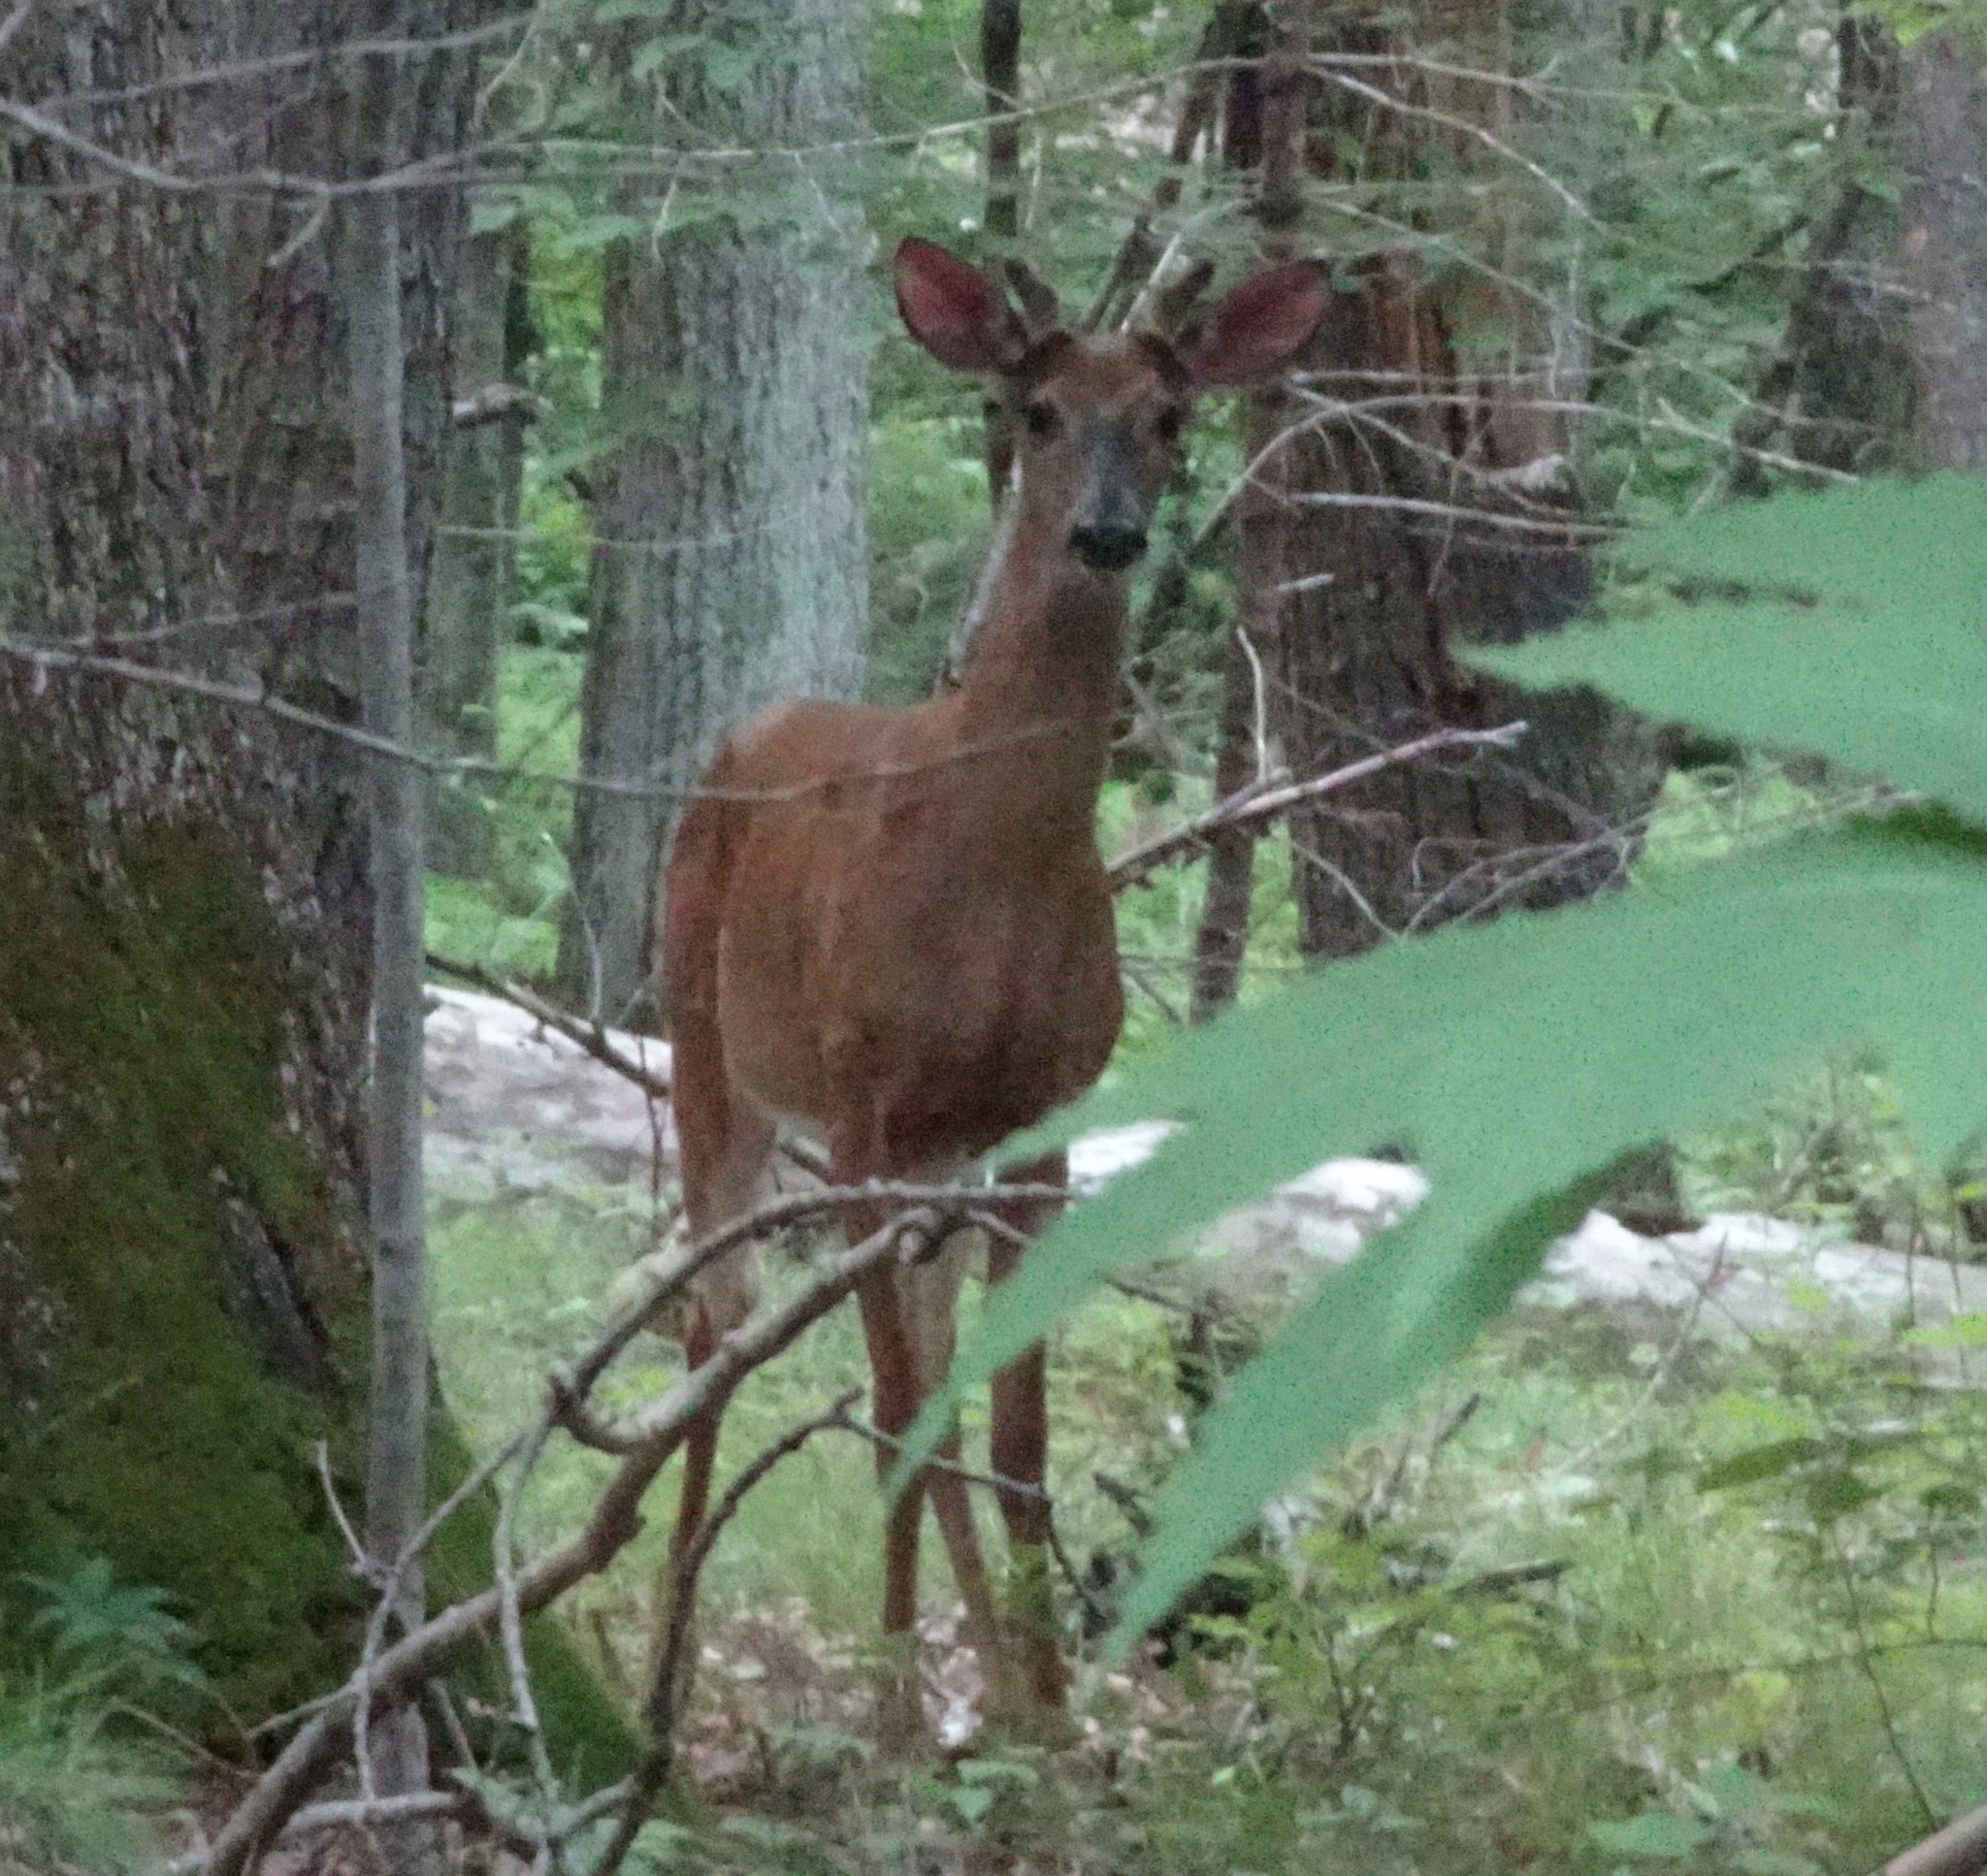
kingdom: Animalia
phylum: Chordata
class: Mammalia
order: Artiodactyla
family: Cervidae
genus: Odocoileus
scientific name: Odocoileus virginianus
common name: White-tailed deer
